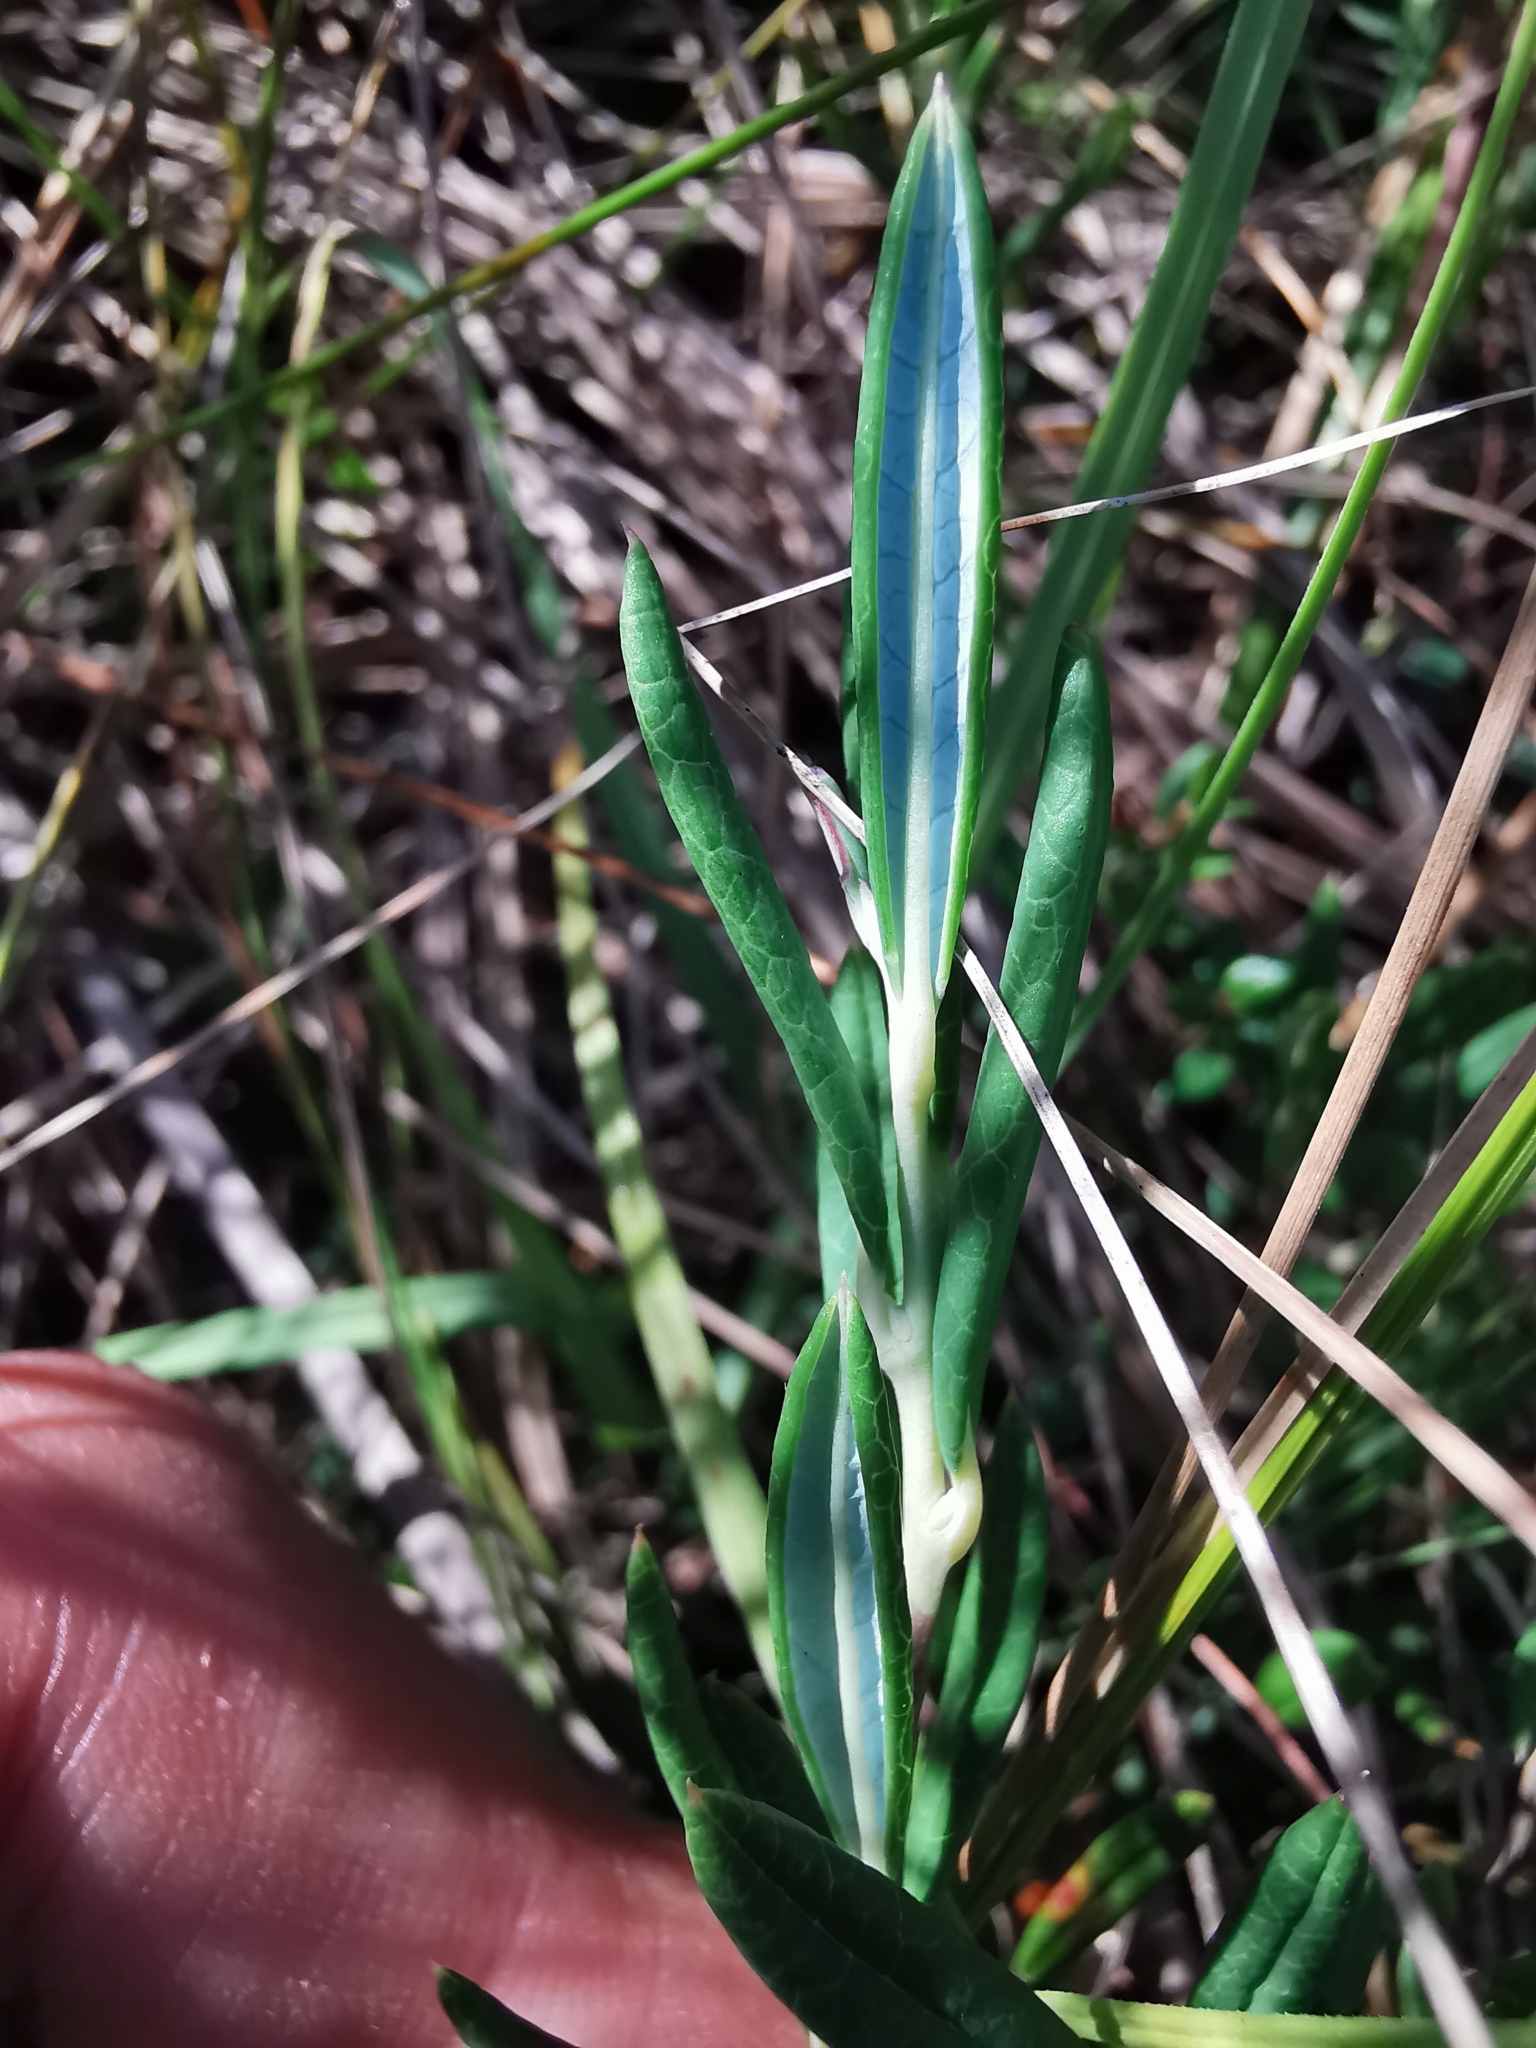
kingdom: Plantae
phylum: Tracheophyta
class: Magnoliopsida
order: Ericales
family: Ericaceae
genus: Andromeda
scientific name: Andromeda polifolia
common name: Bog-rosemary
